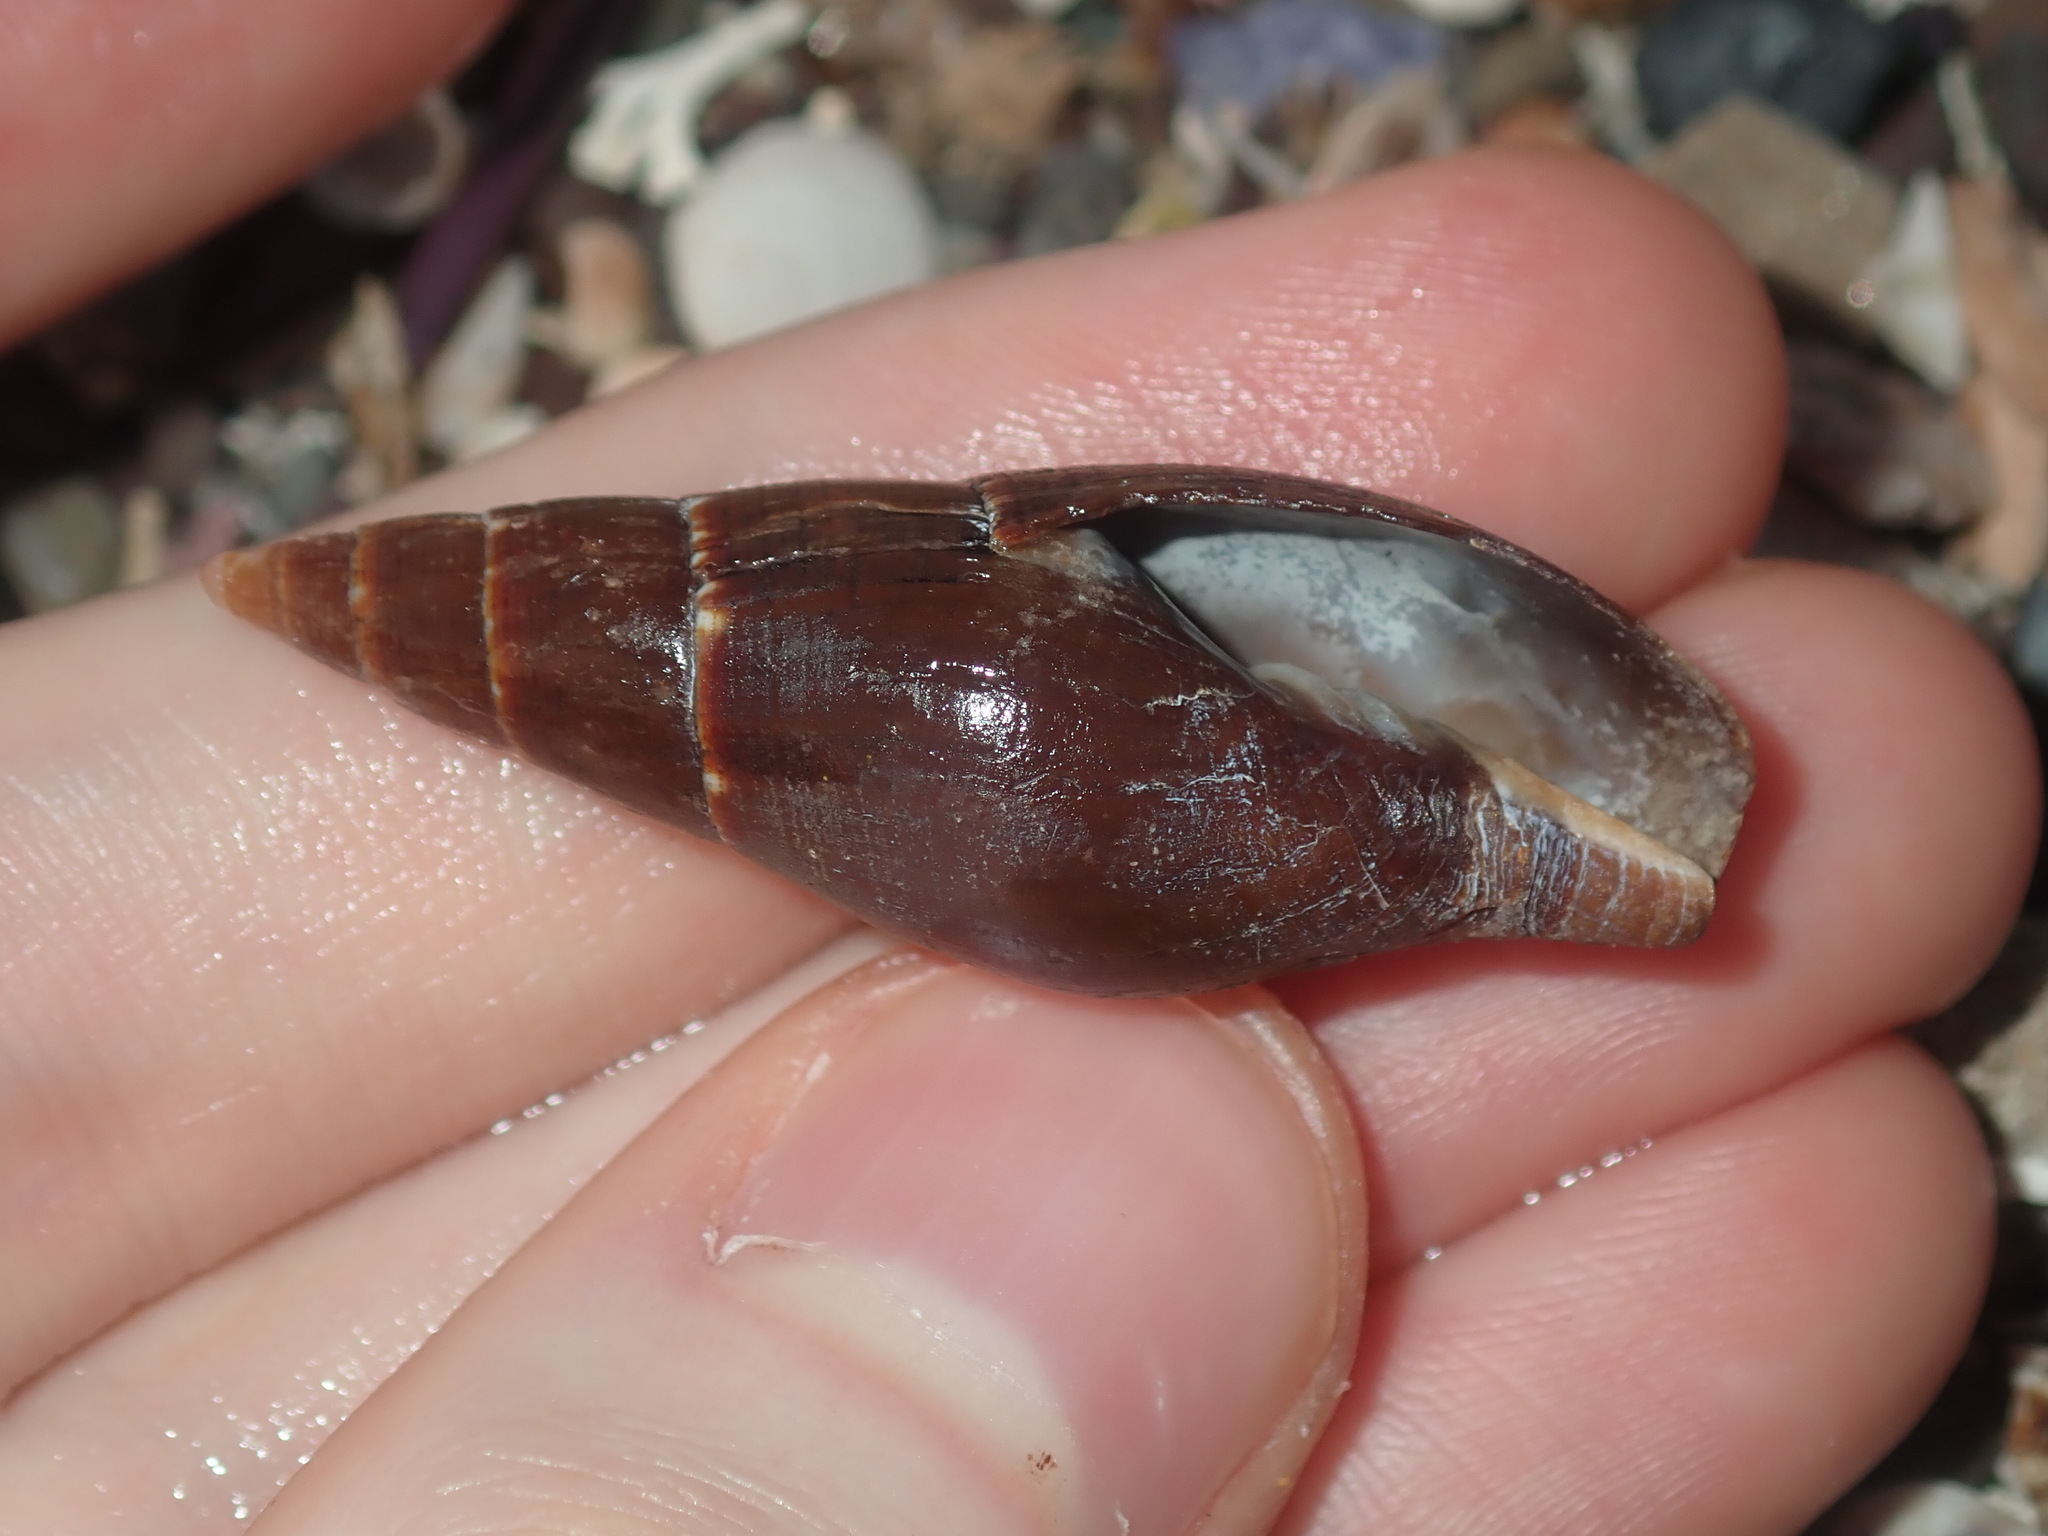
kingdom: Animalia
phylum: Mollusca
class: Gastropoda
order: Neogastropoda
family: Mitridae
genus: Isara
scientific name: Isara carbonaria
